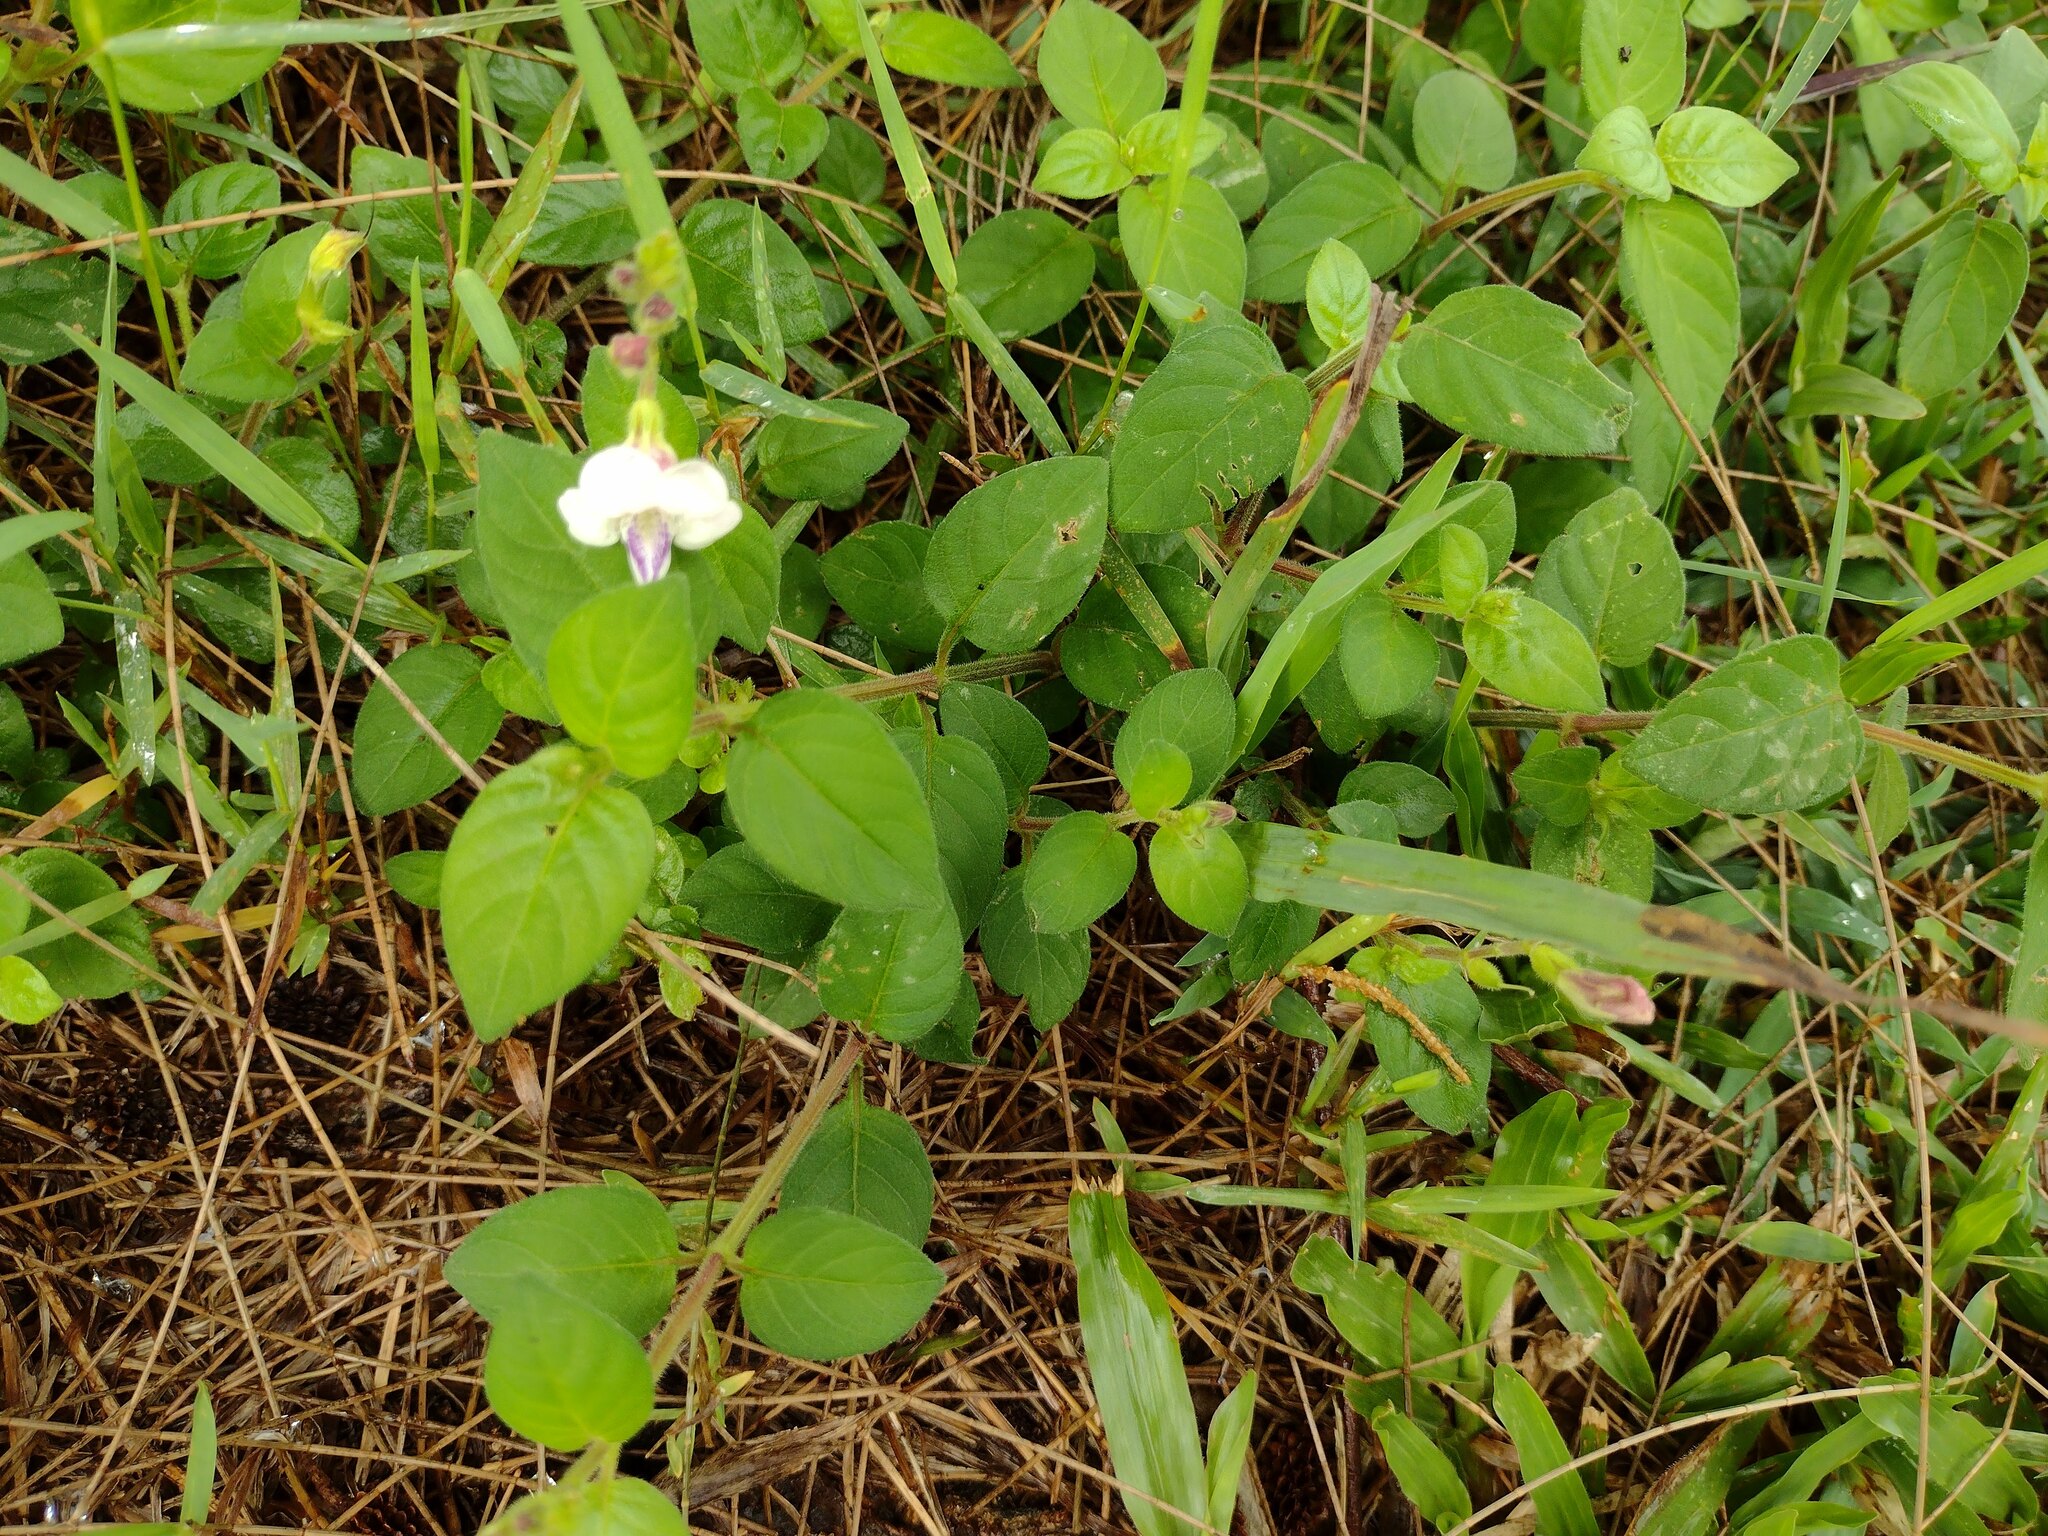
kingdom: Plantae
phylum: Tracheophyta
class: Magnoliopsida
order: Lamiales
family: Acanthaceae
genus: Asystasia
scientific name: Asystasia intrusa
